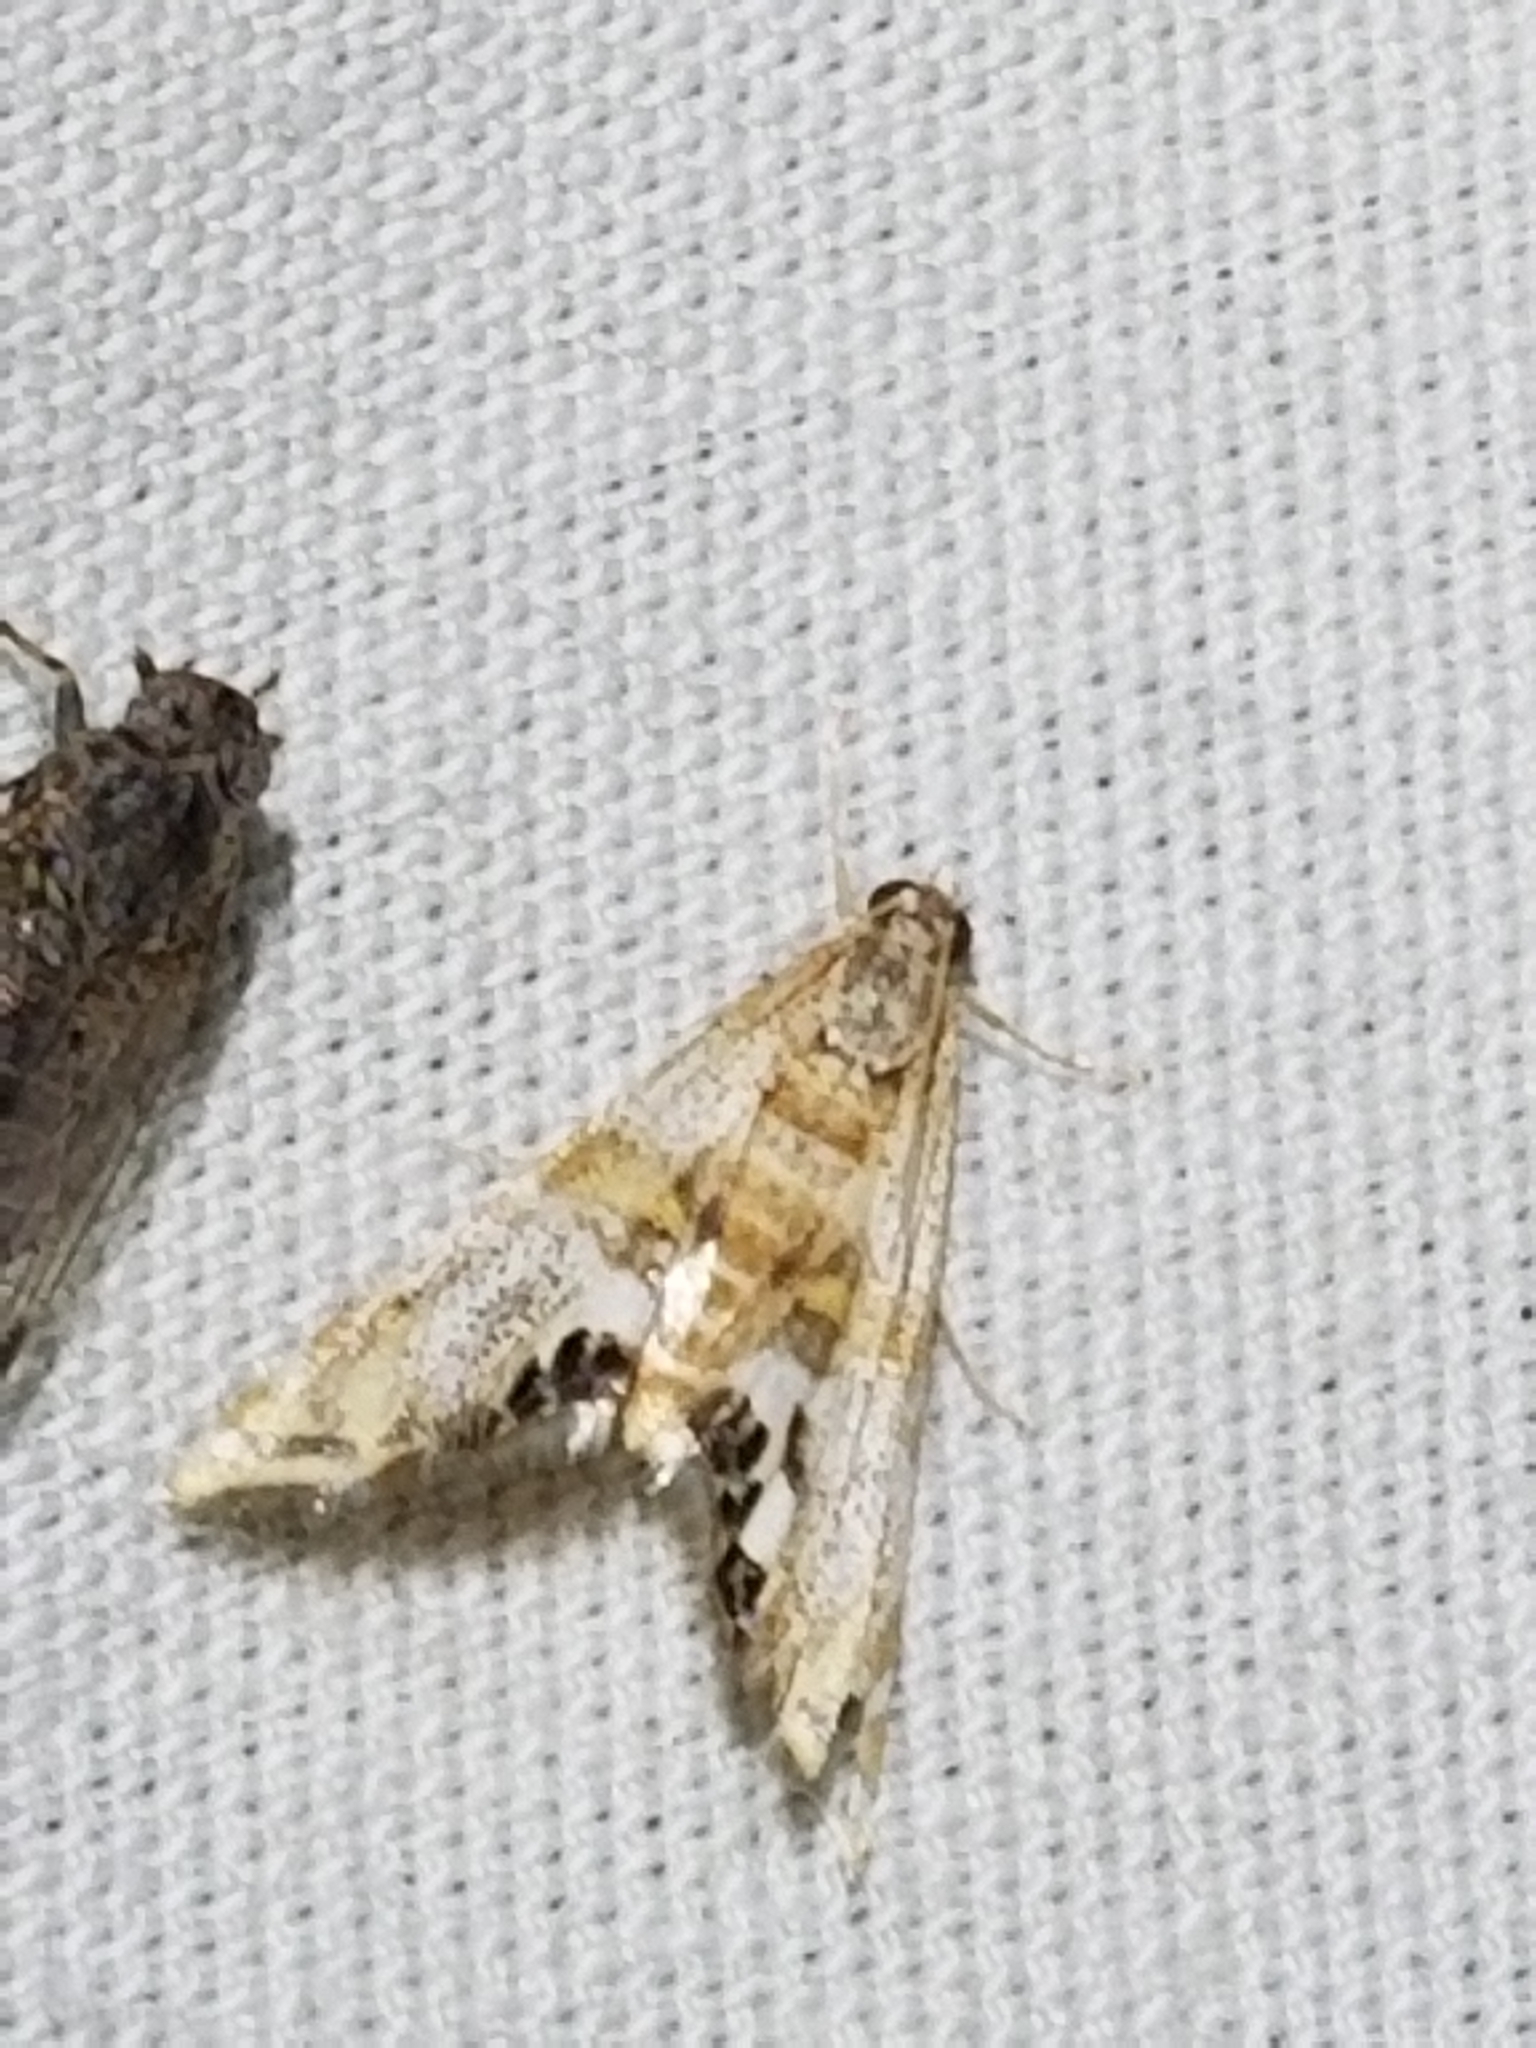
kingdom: Animalia
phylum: Arthropoda
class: Insecta
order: Lepidoptera
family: Crambidae
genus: Petrophila
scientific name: Petrophila bifascialis
